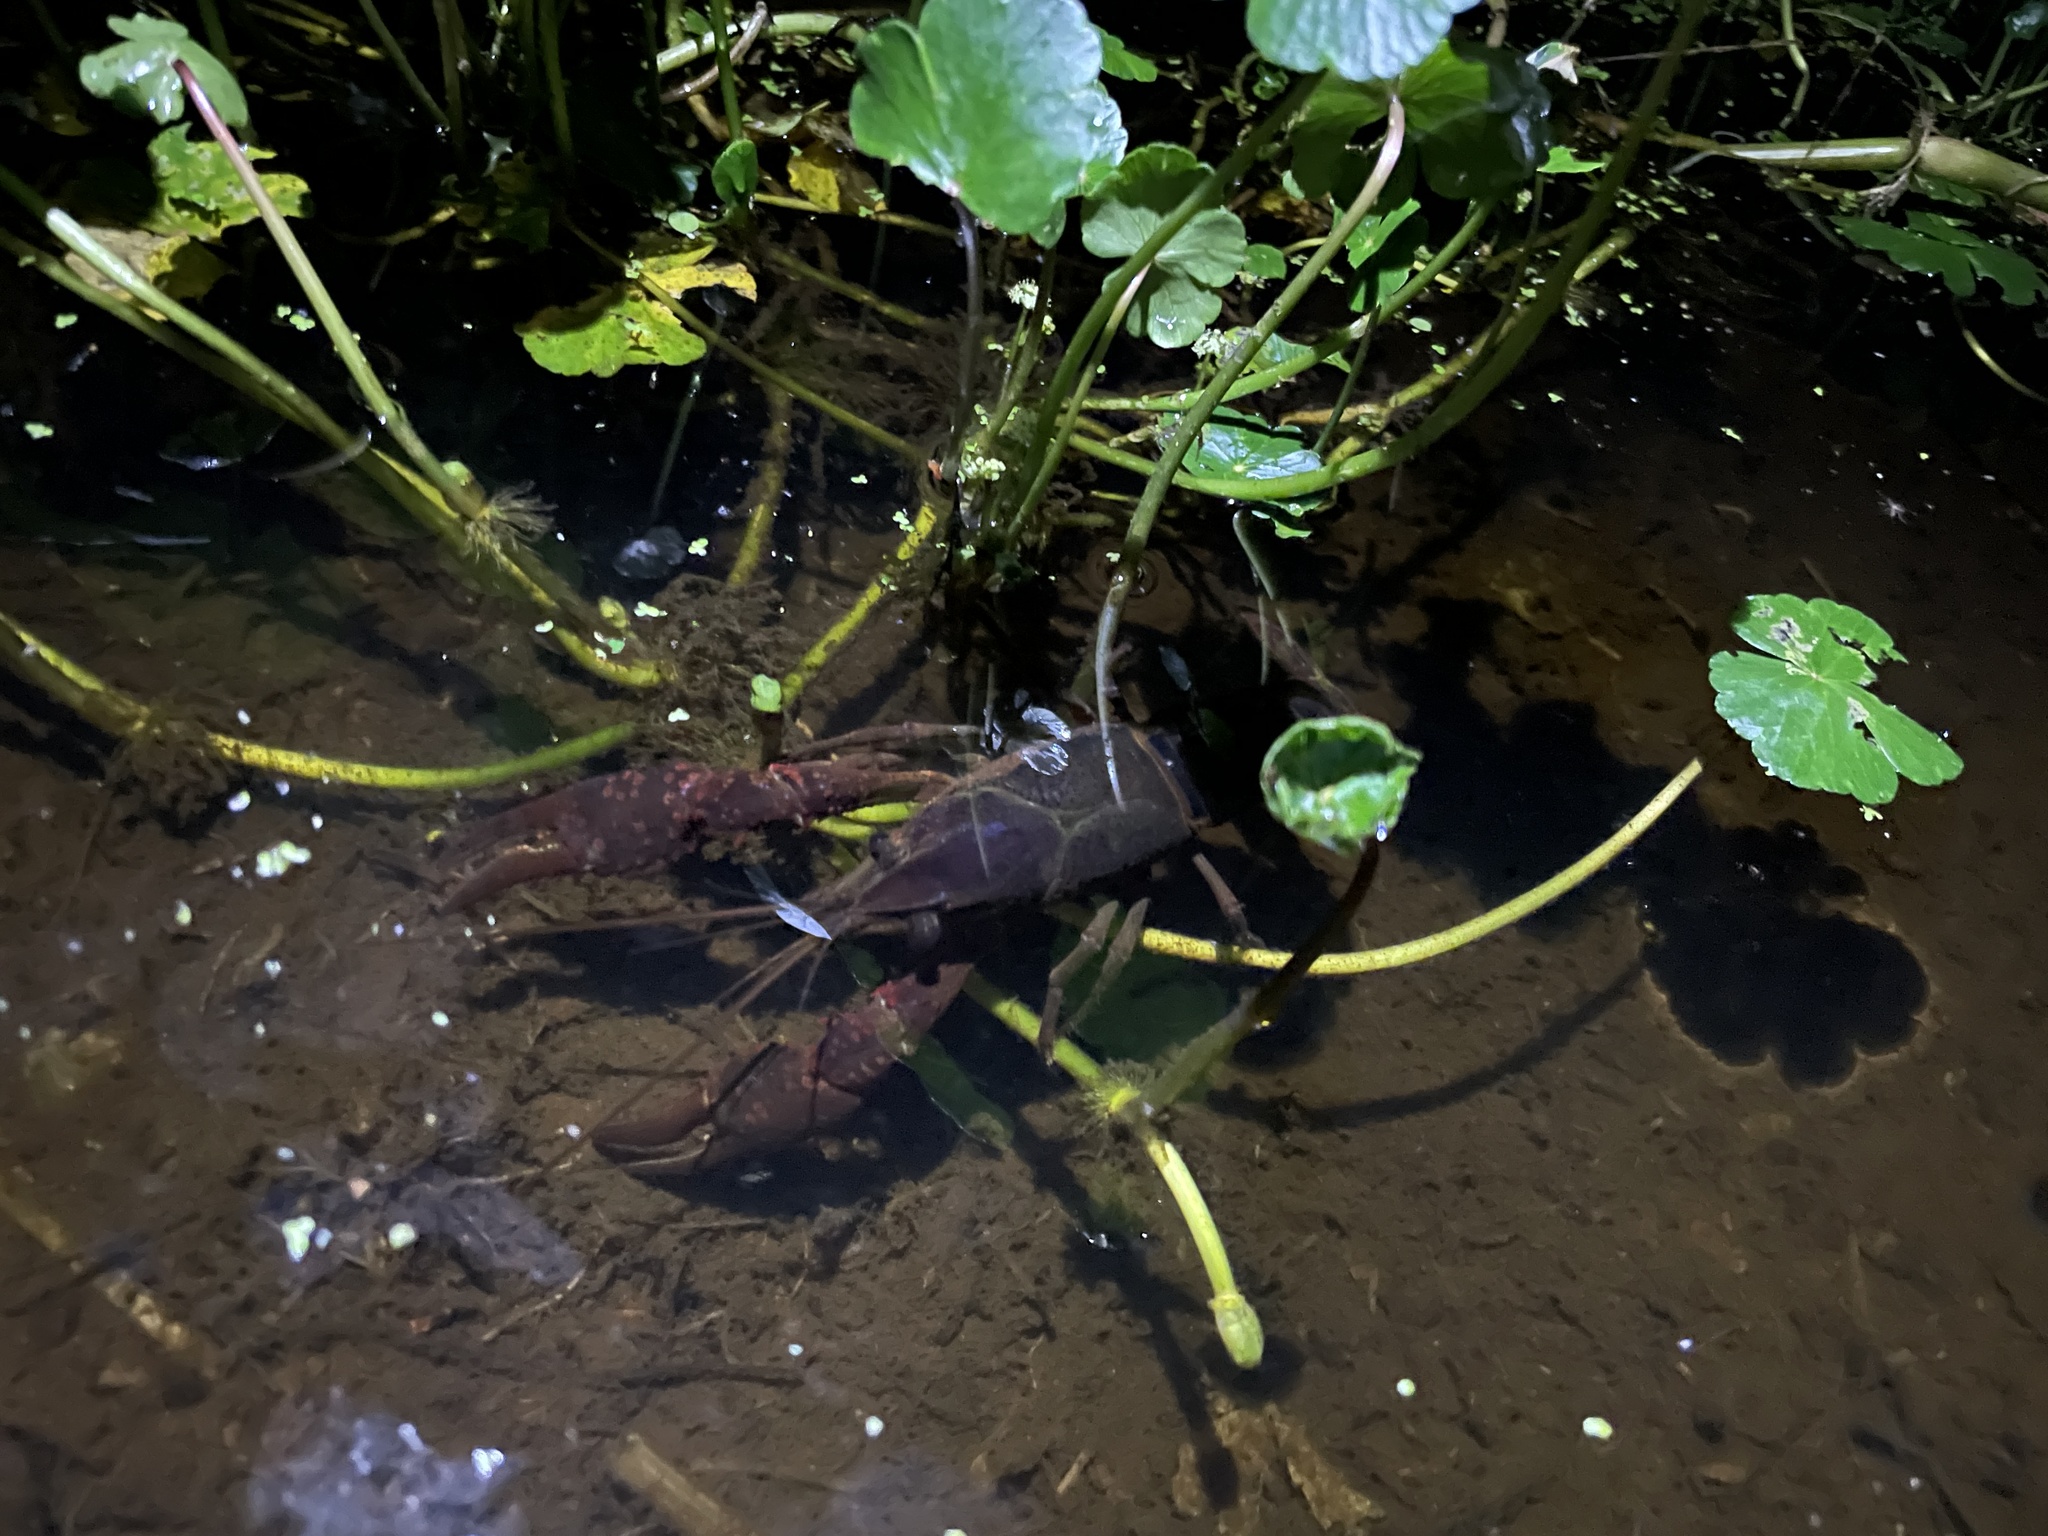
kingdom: Animalia
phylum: Arthropoda
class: Malacostraca
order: Decapoda
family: Cambaridae
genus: Procambarus
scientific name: Procambarus clarkii
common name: Red swamp crayfish
